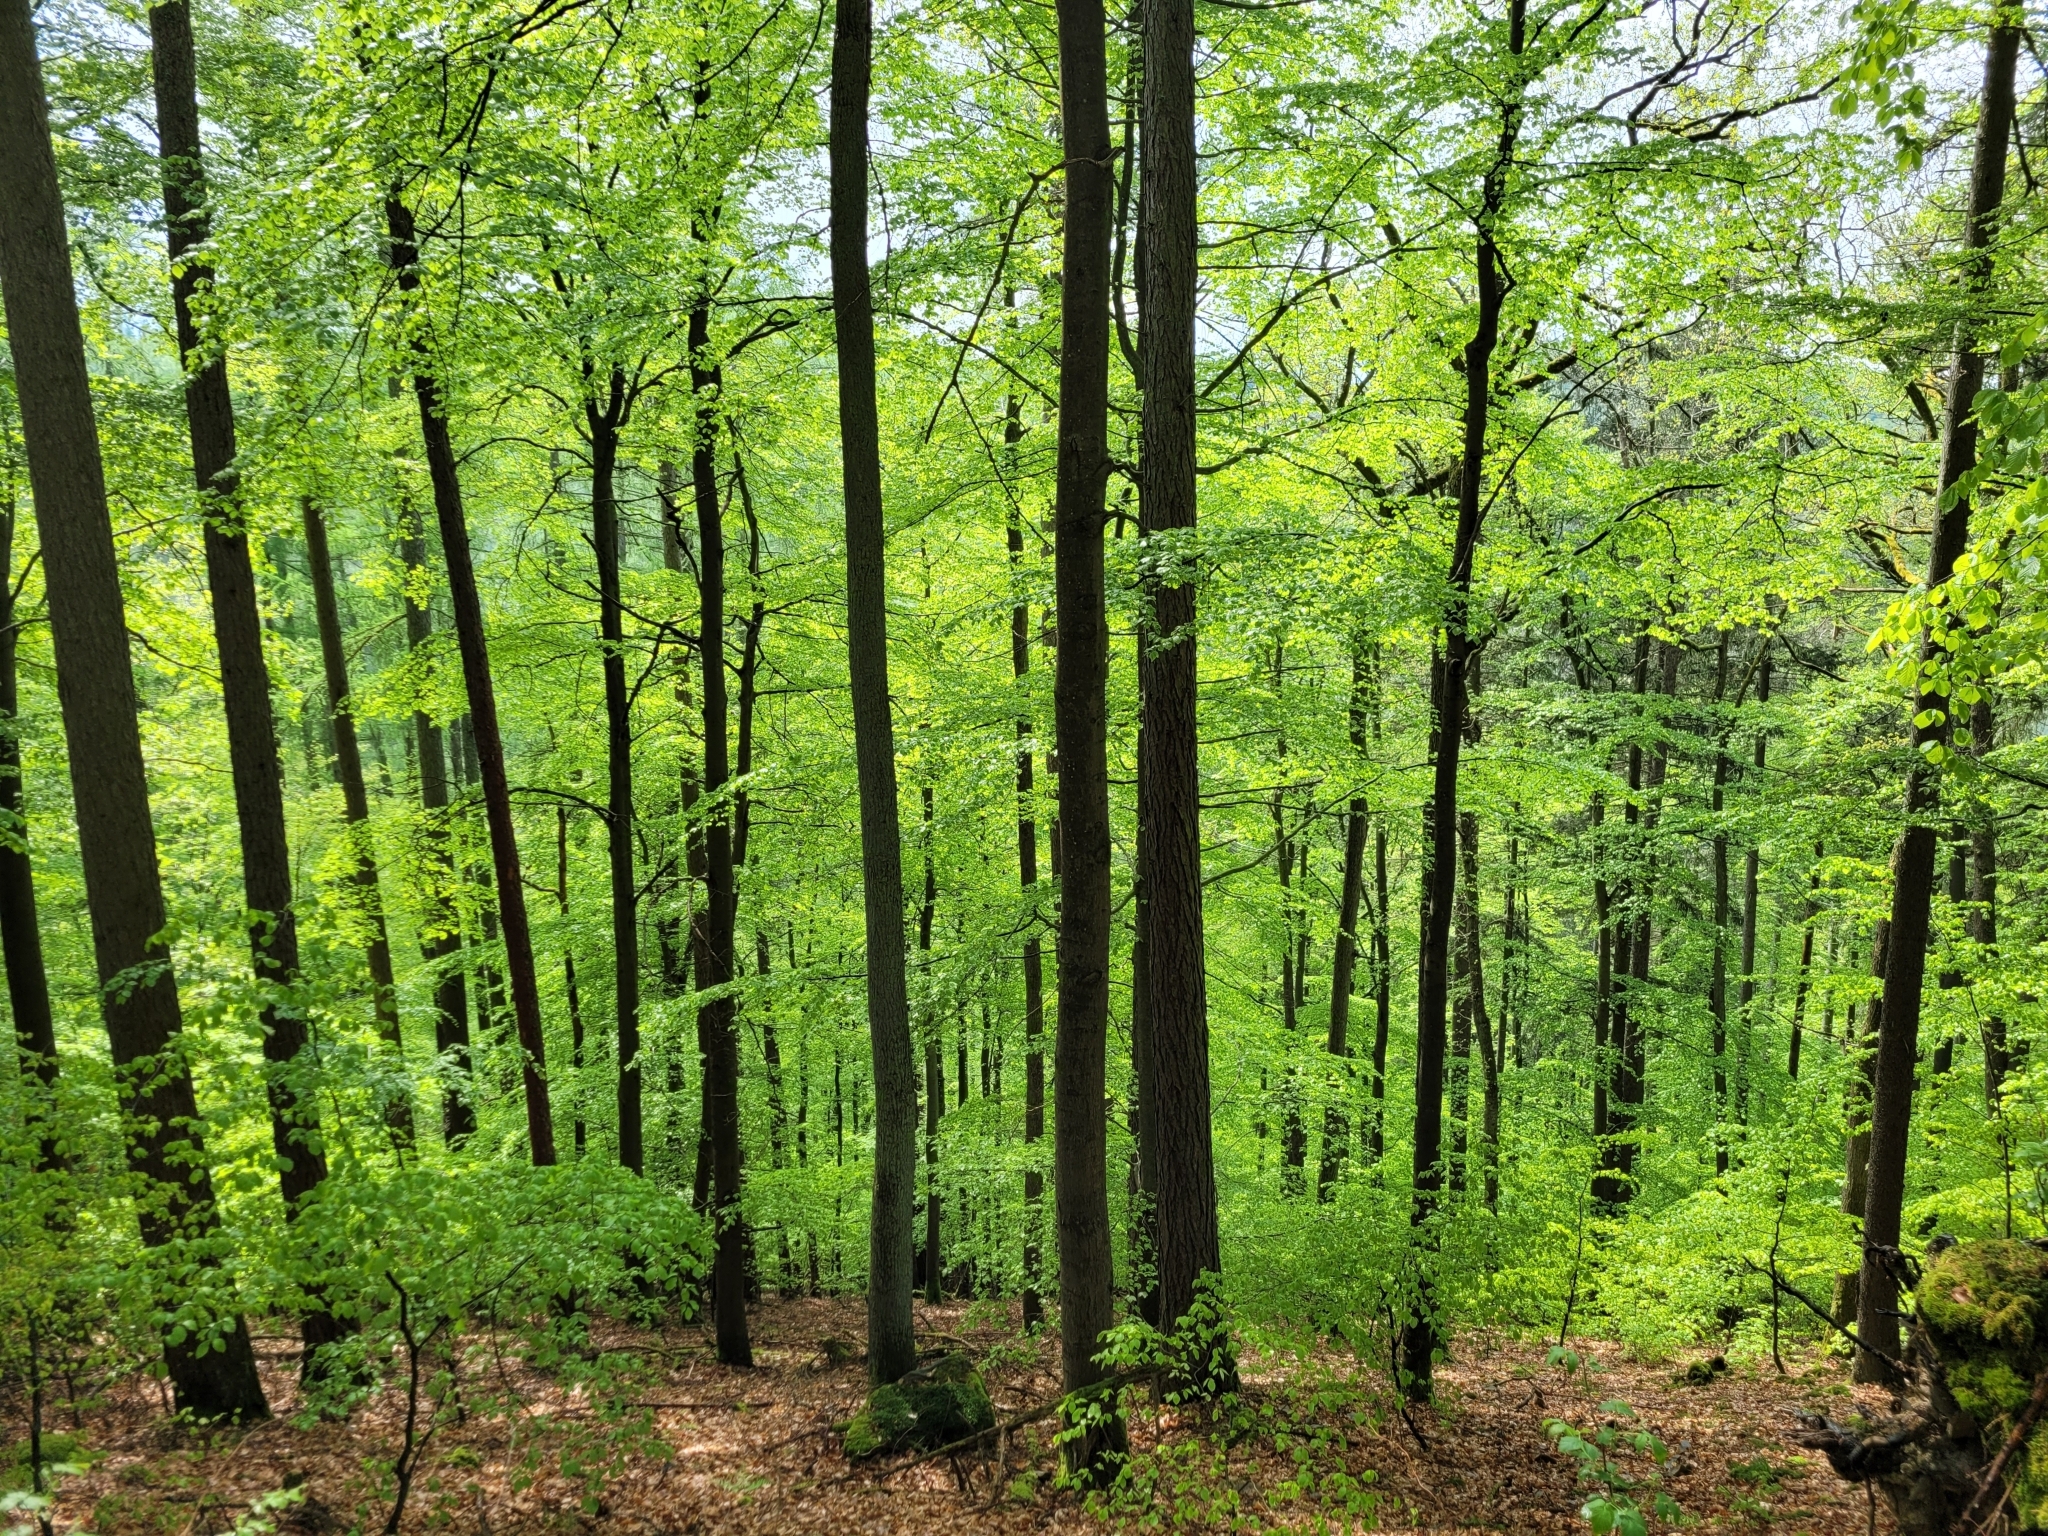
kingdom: Plantae
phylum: Tracheophyta
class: Magnoliopsida
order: Fagales
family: Fagaceae
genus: Fagus
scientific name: Fagus sylvatica
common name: Beech
